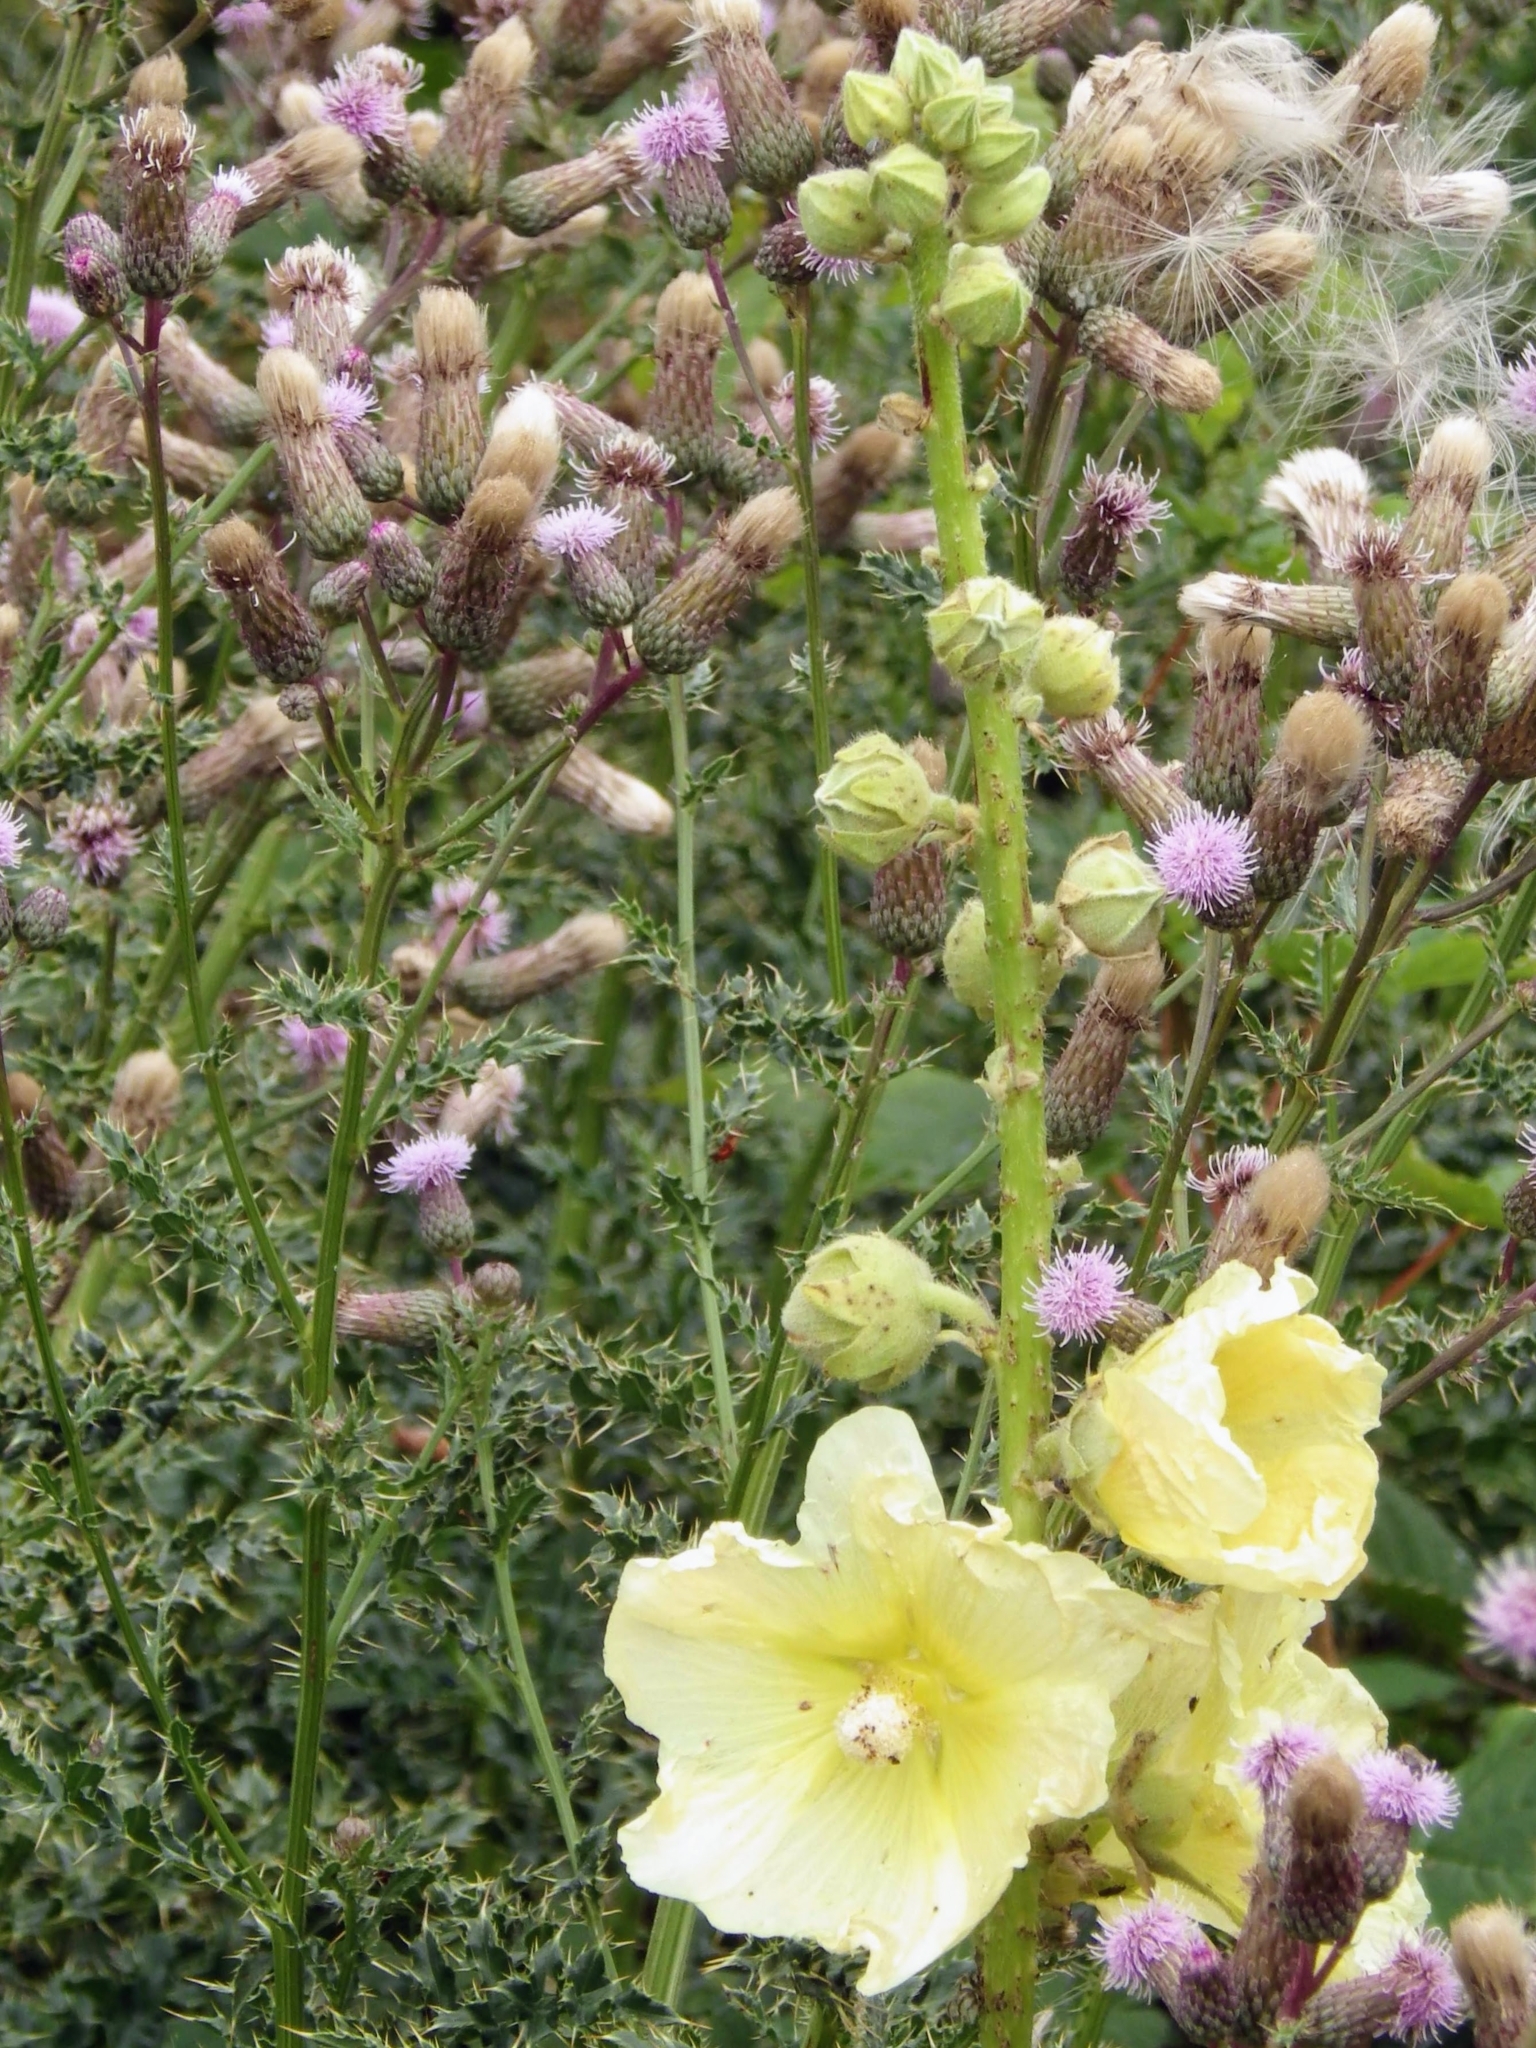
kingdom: Plantae
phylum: Tracheophyta
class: Magnoliopsida
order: Malvales
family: Malvaceae
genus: Alcea
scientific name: Alcea rugosa
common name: Russian hollyhock
